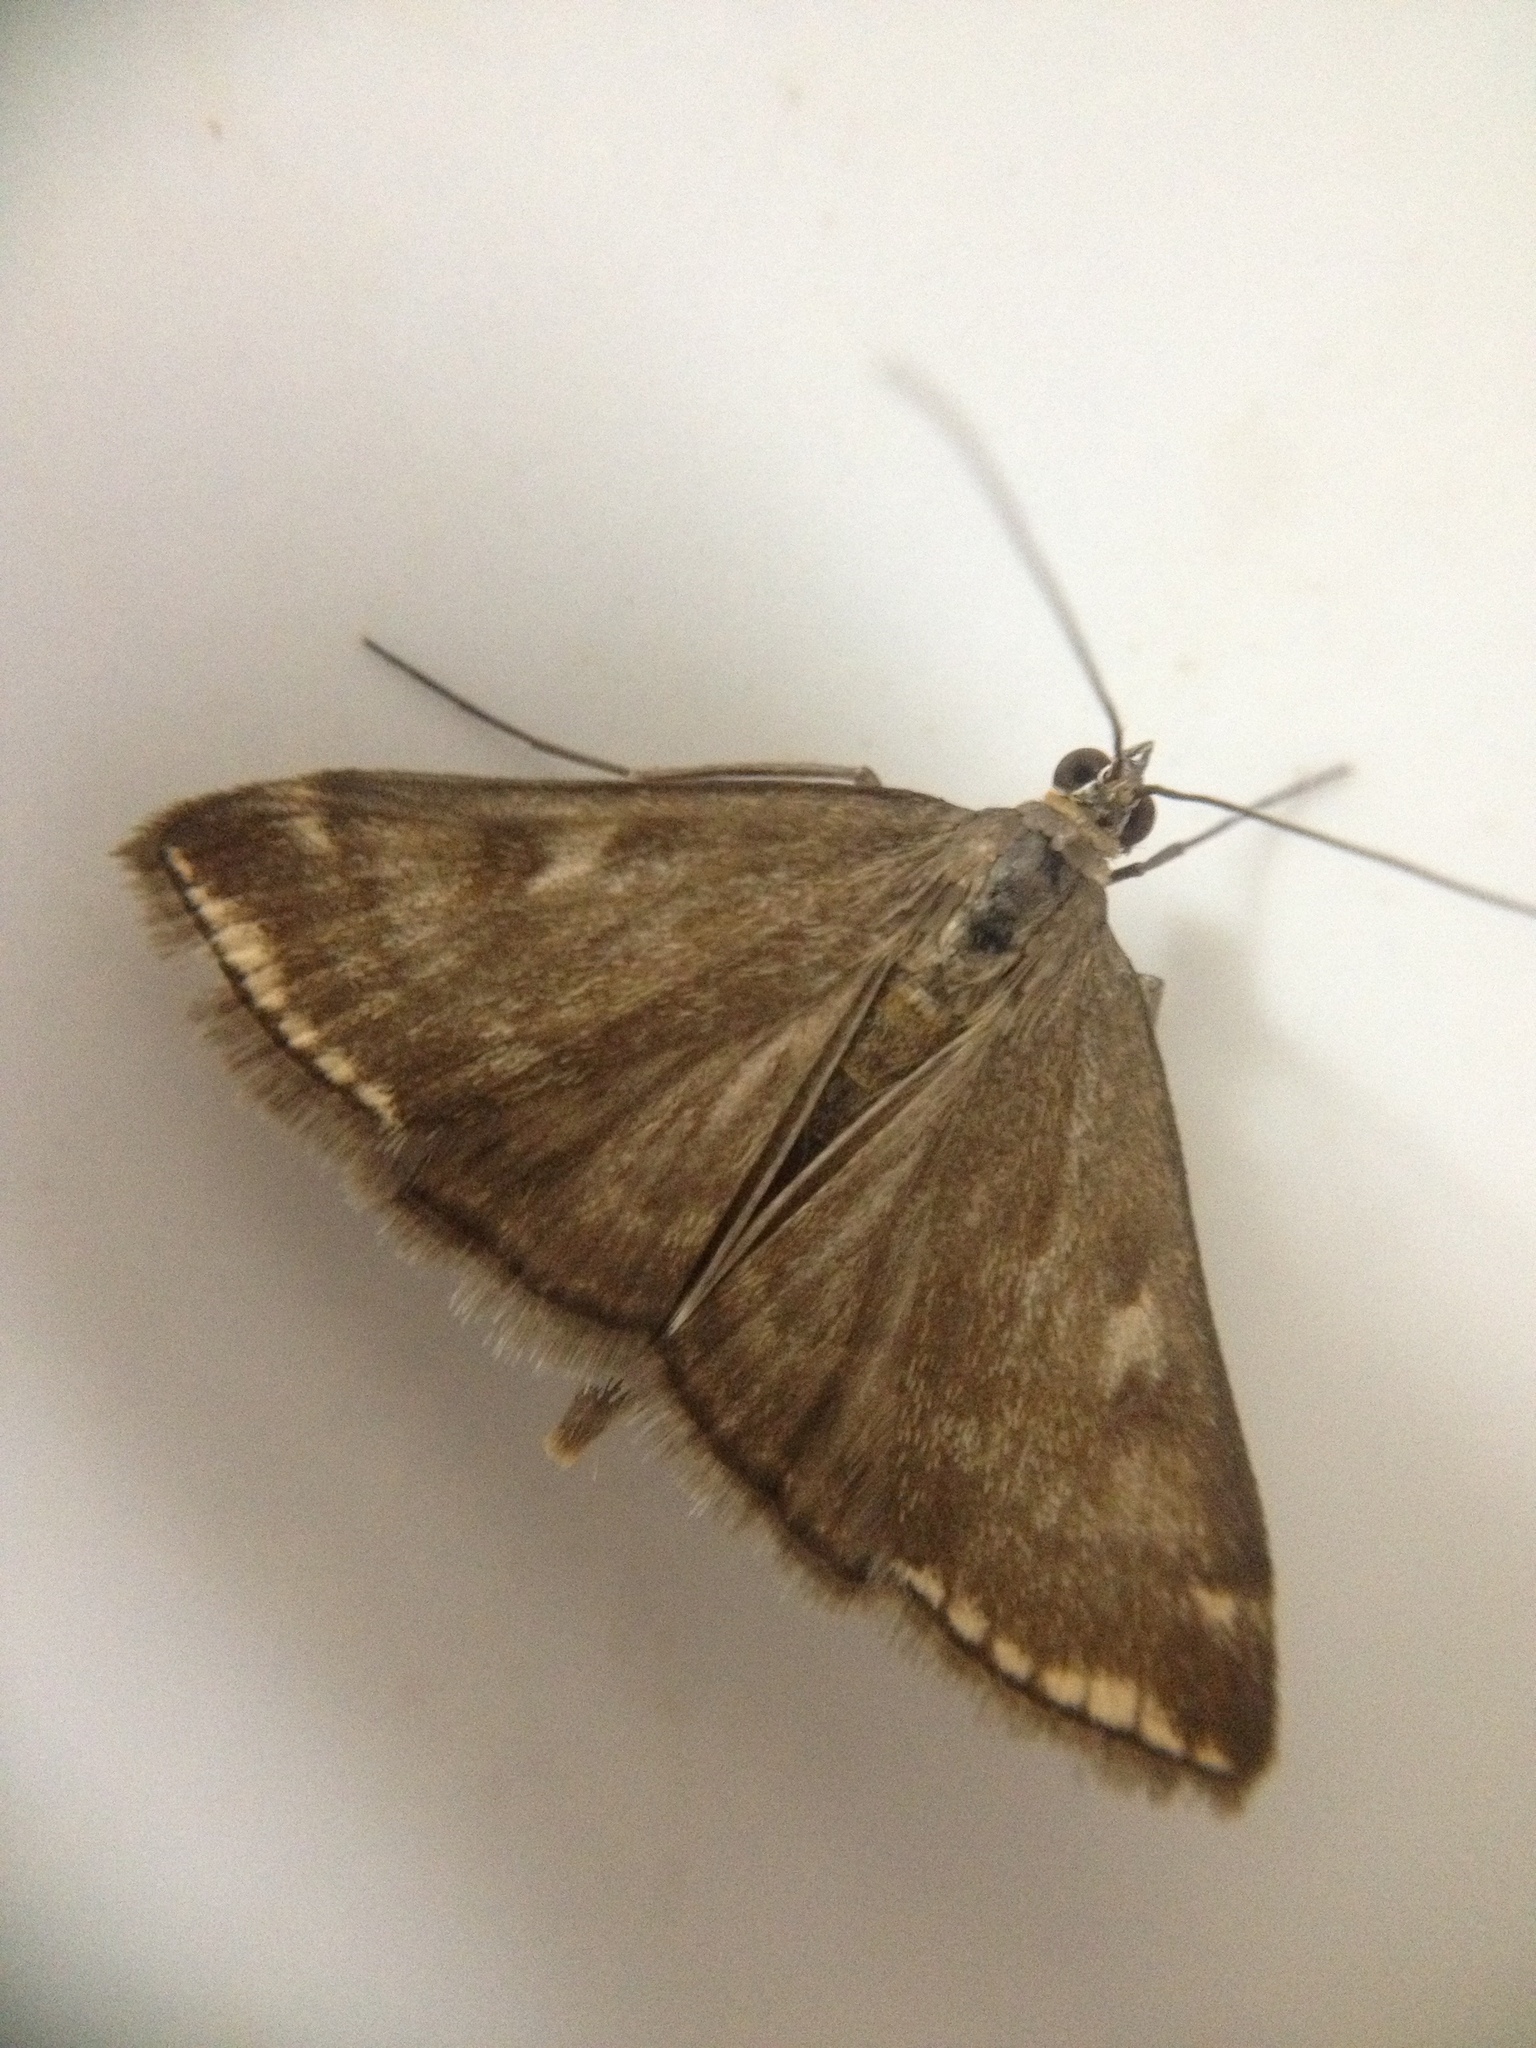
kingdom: Animalia
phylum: Arthropoda
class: Insecta
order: Lepidoptera
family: Crambidae
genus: Loxostege
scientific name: Loxostege sticticalis
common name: Crambid moth
